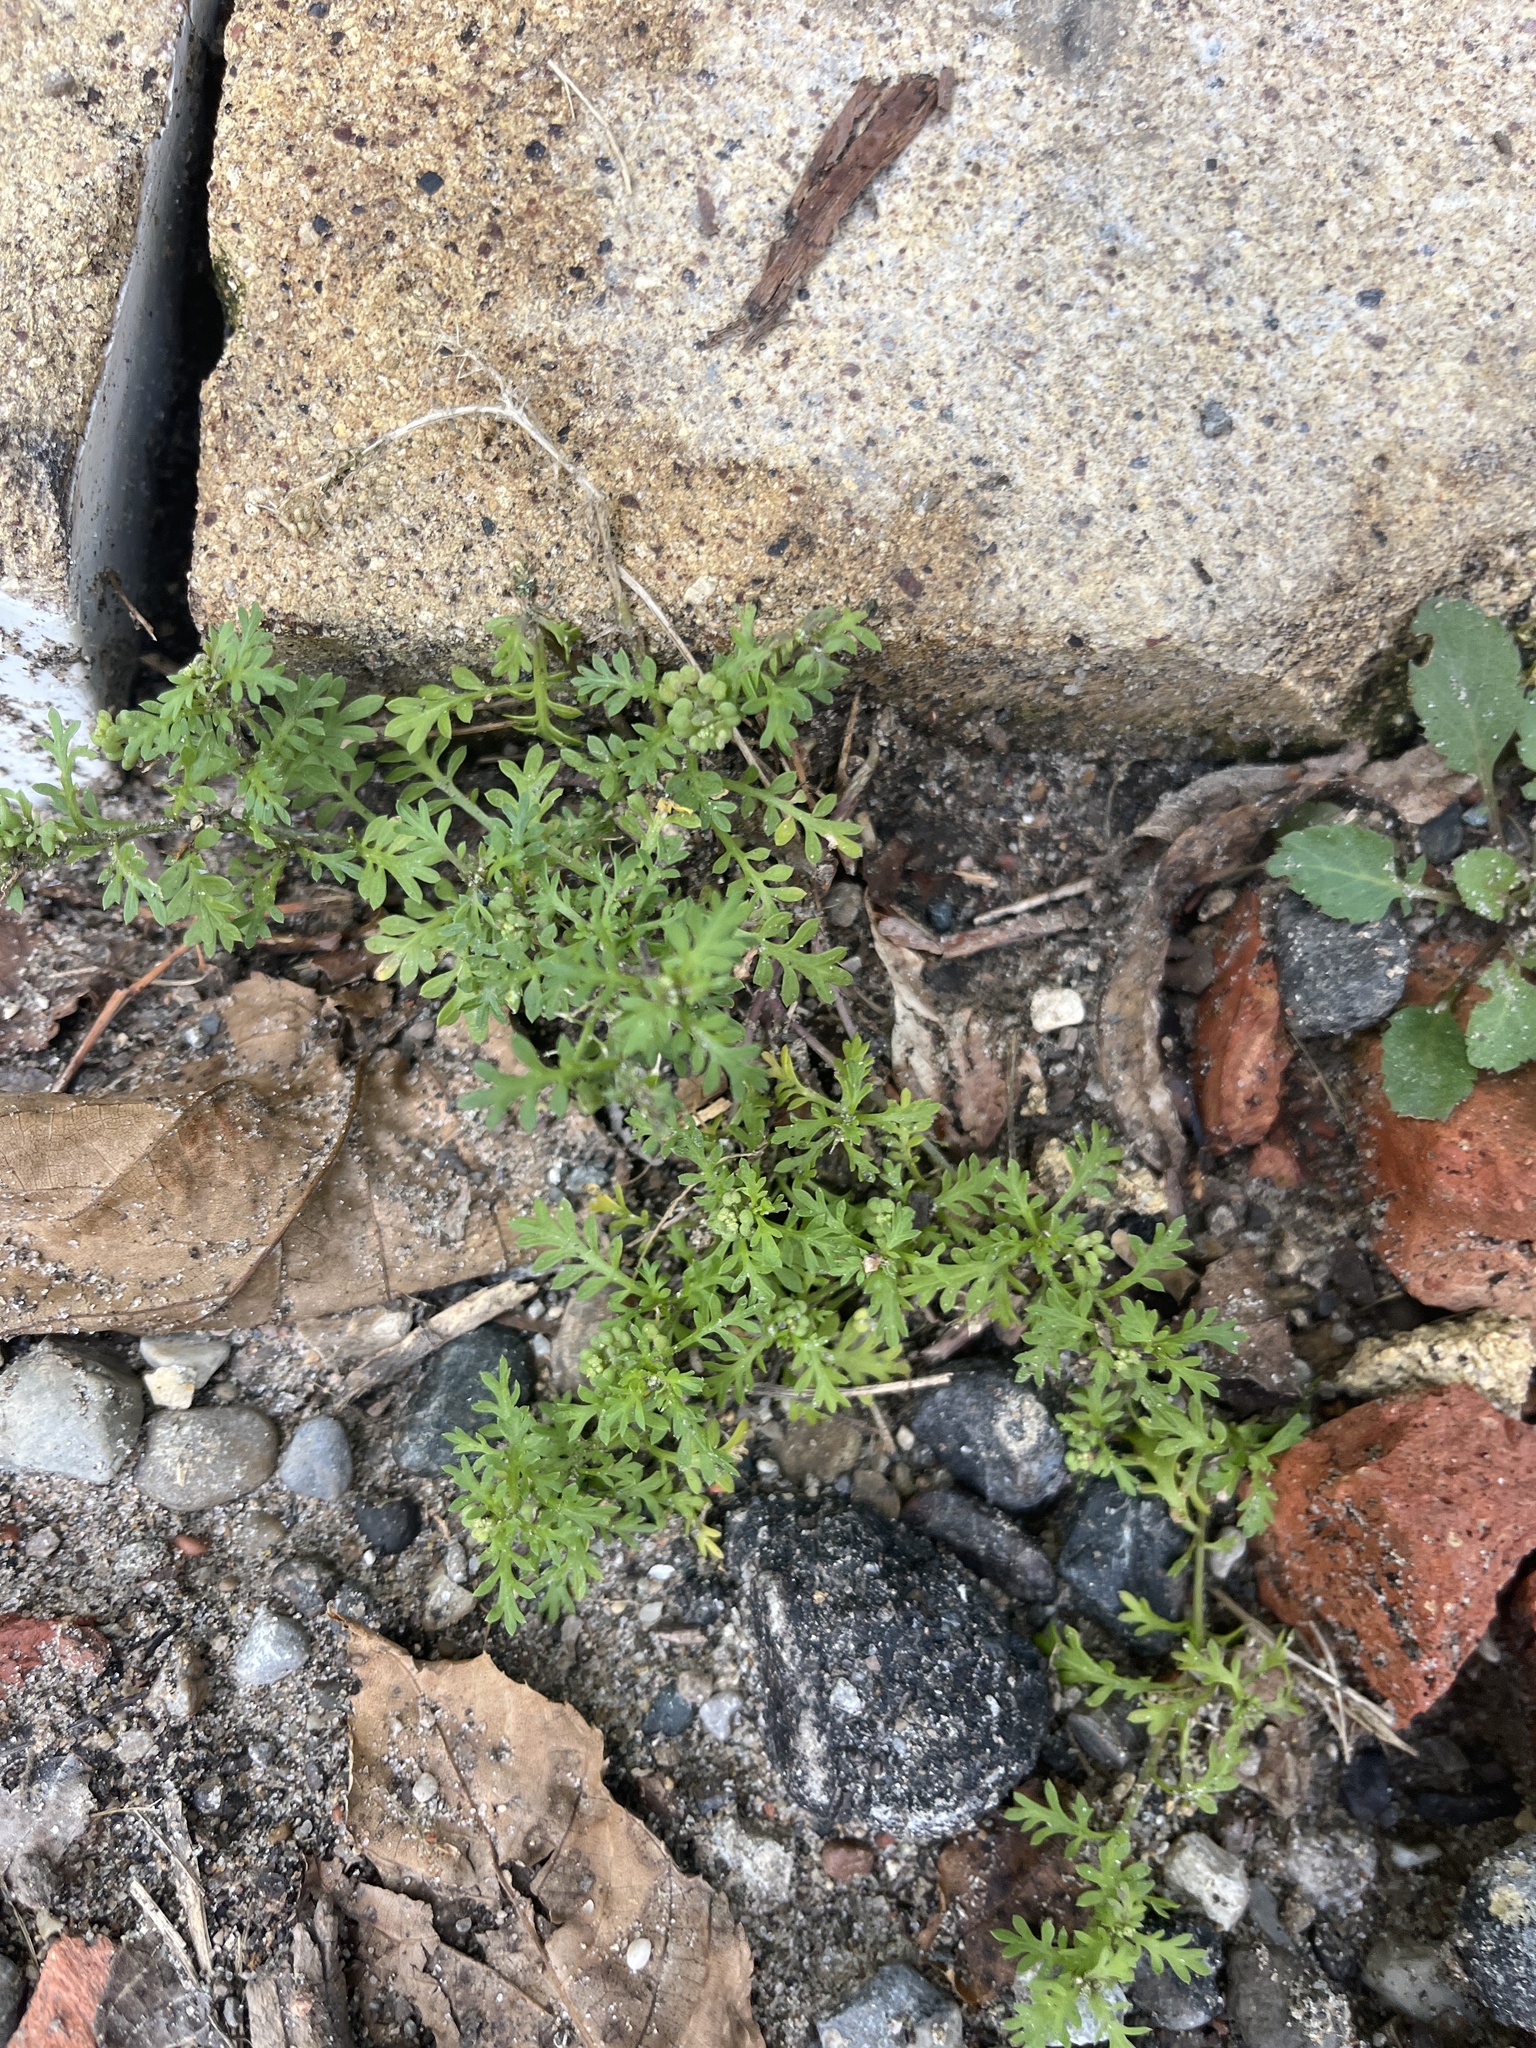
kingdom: Plantae
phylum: Tracheophyta
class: Magnoliopsida
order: Brassicales
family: Brassicaceae
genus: Lepidium
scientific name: Lepidium didymum
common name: Lesser swinecress
